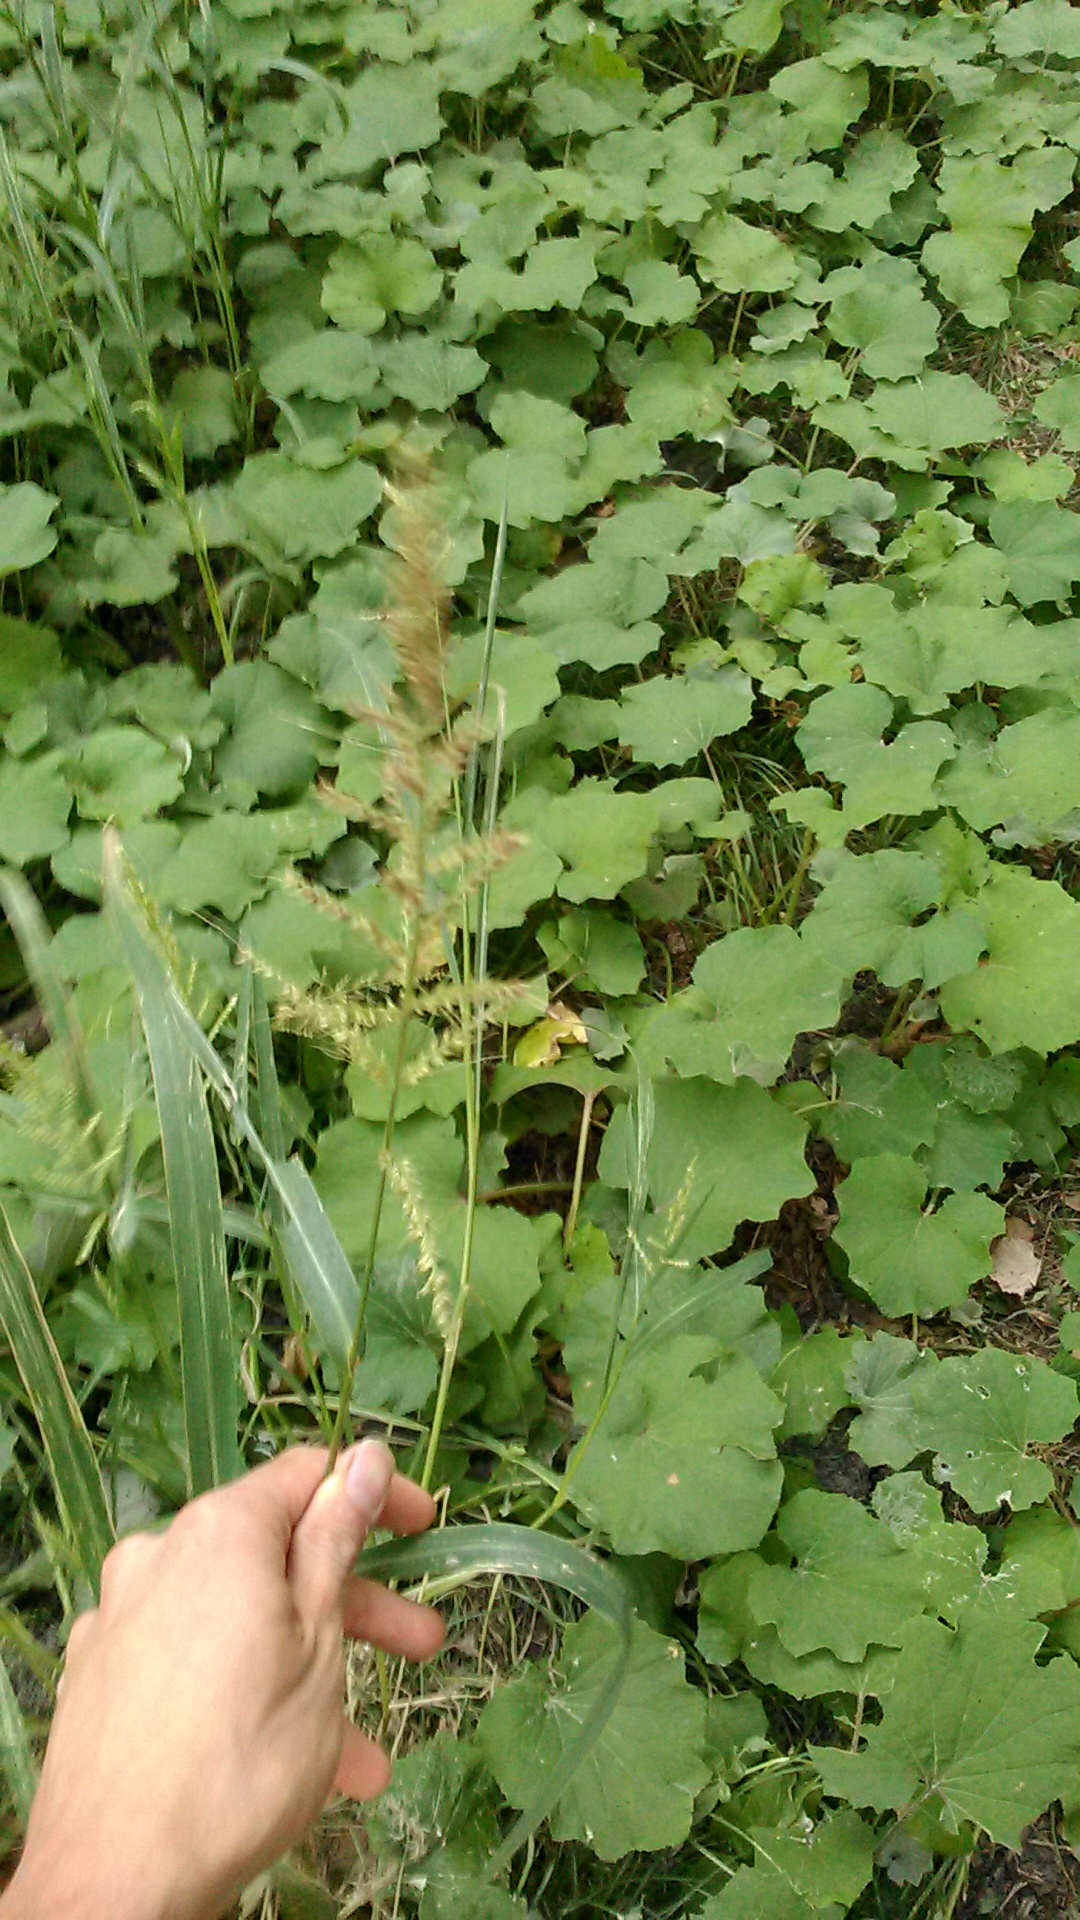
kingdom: Plantae
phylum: Tracheophyta
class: Liliopsida
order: Poales
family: Poaceae
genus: Echinochloa
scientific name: Echinochloa crus-galli
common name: Cockspur
